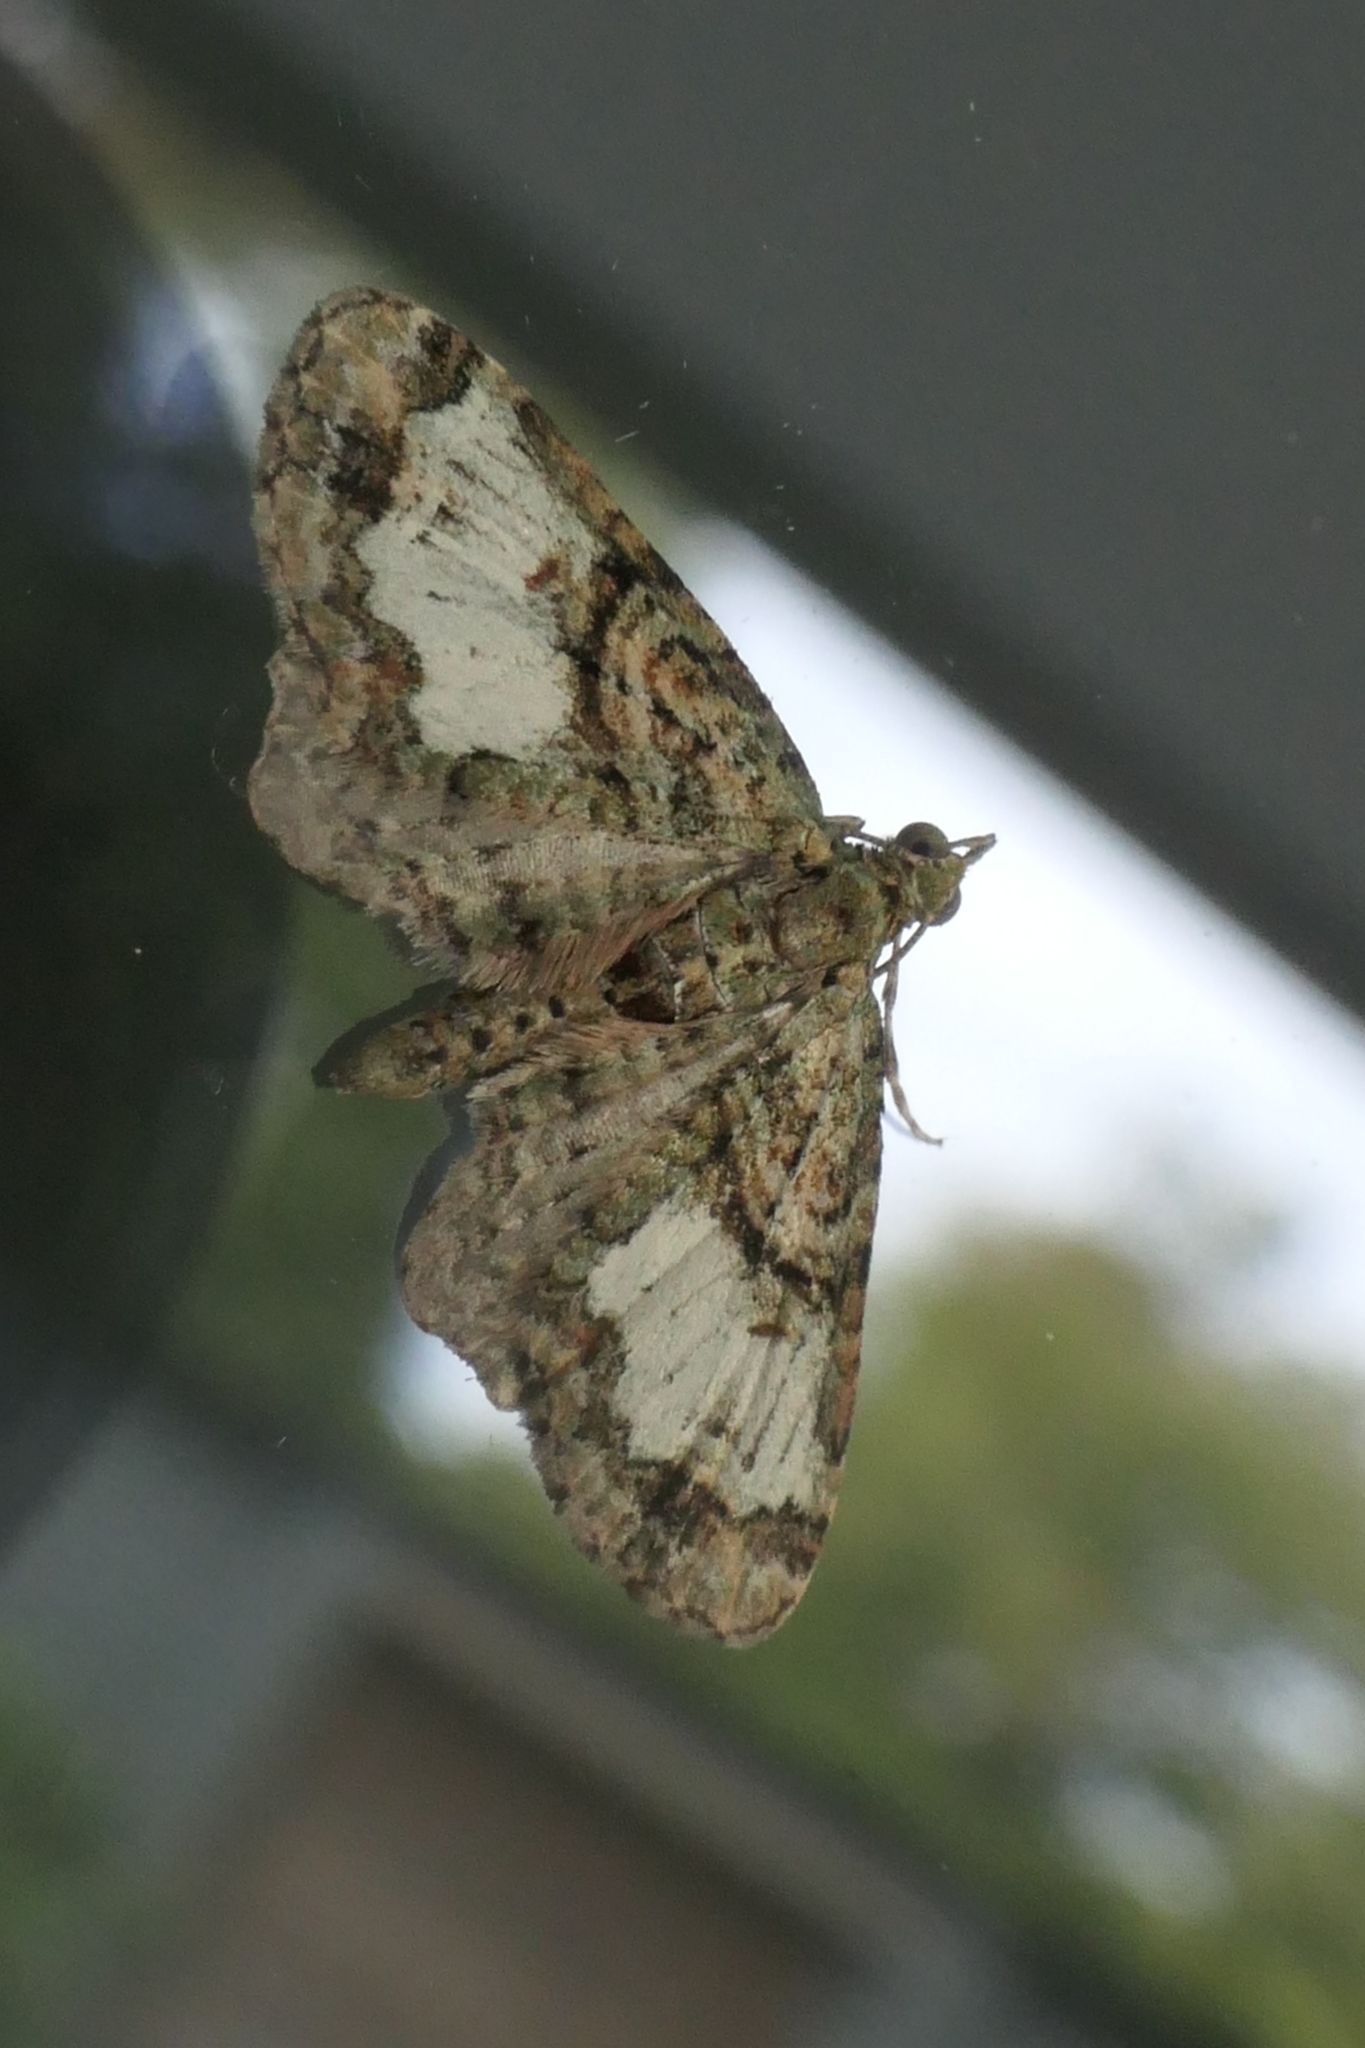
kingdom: Animalia
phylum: Arthropoda
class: Insecta
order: Lepidoptera
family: Geometridae
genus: Idaea
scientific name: Idaea mutanda
